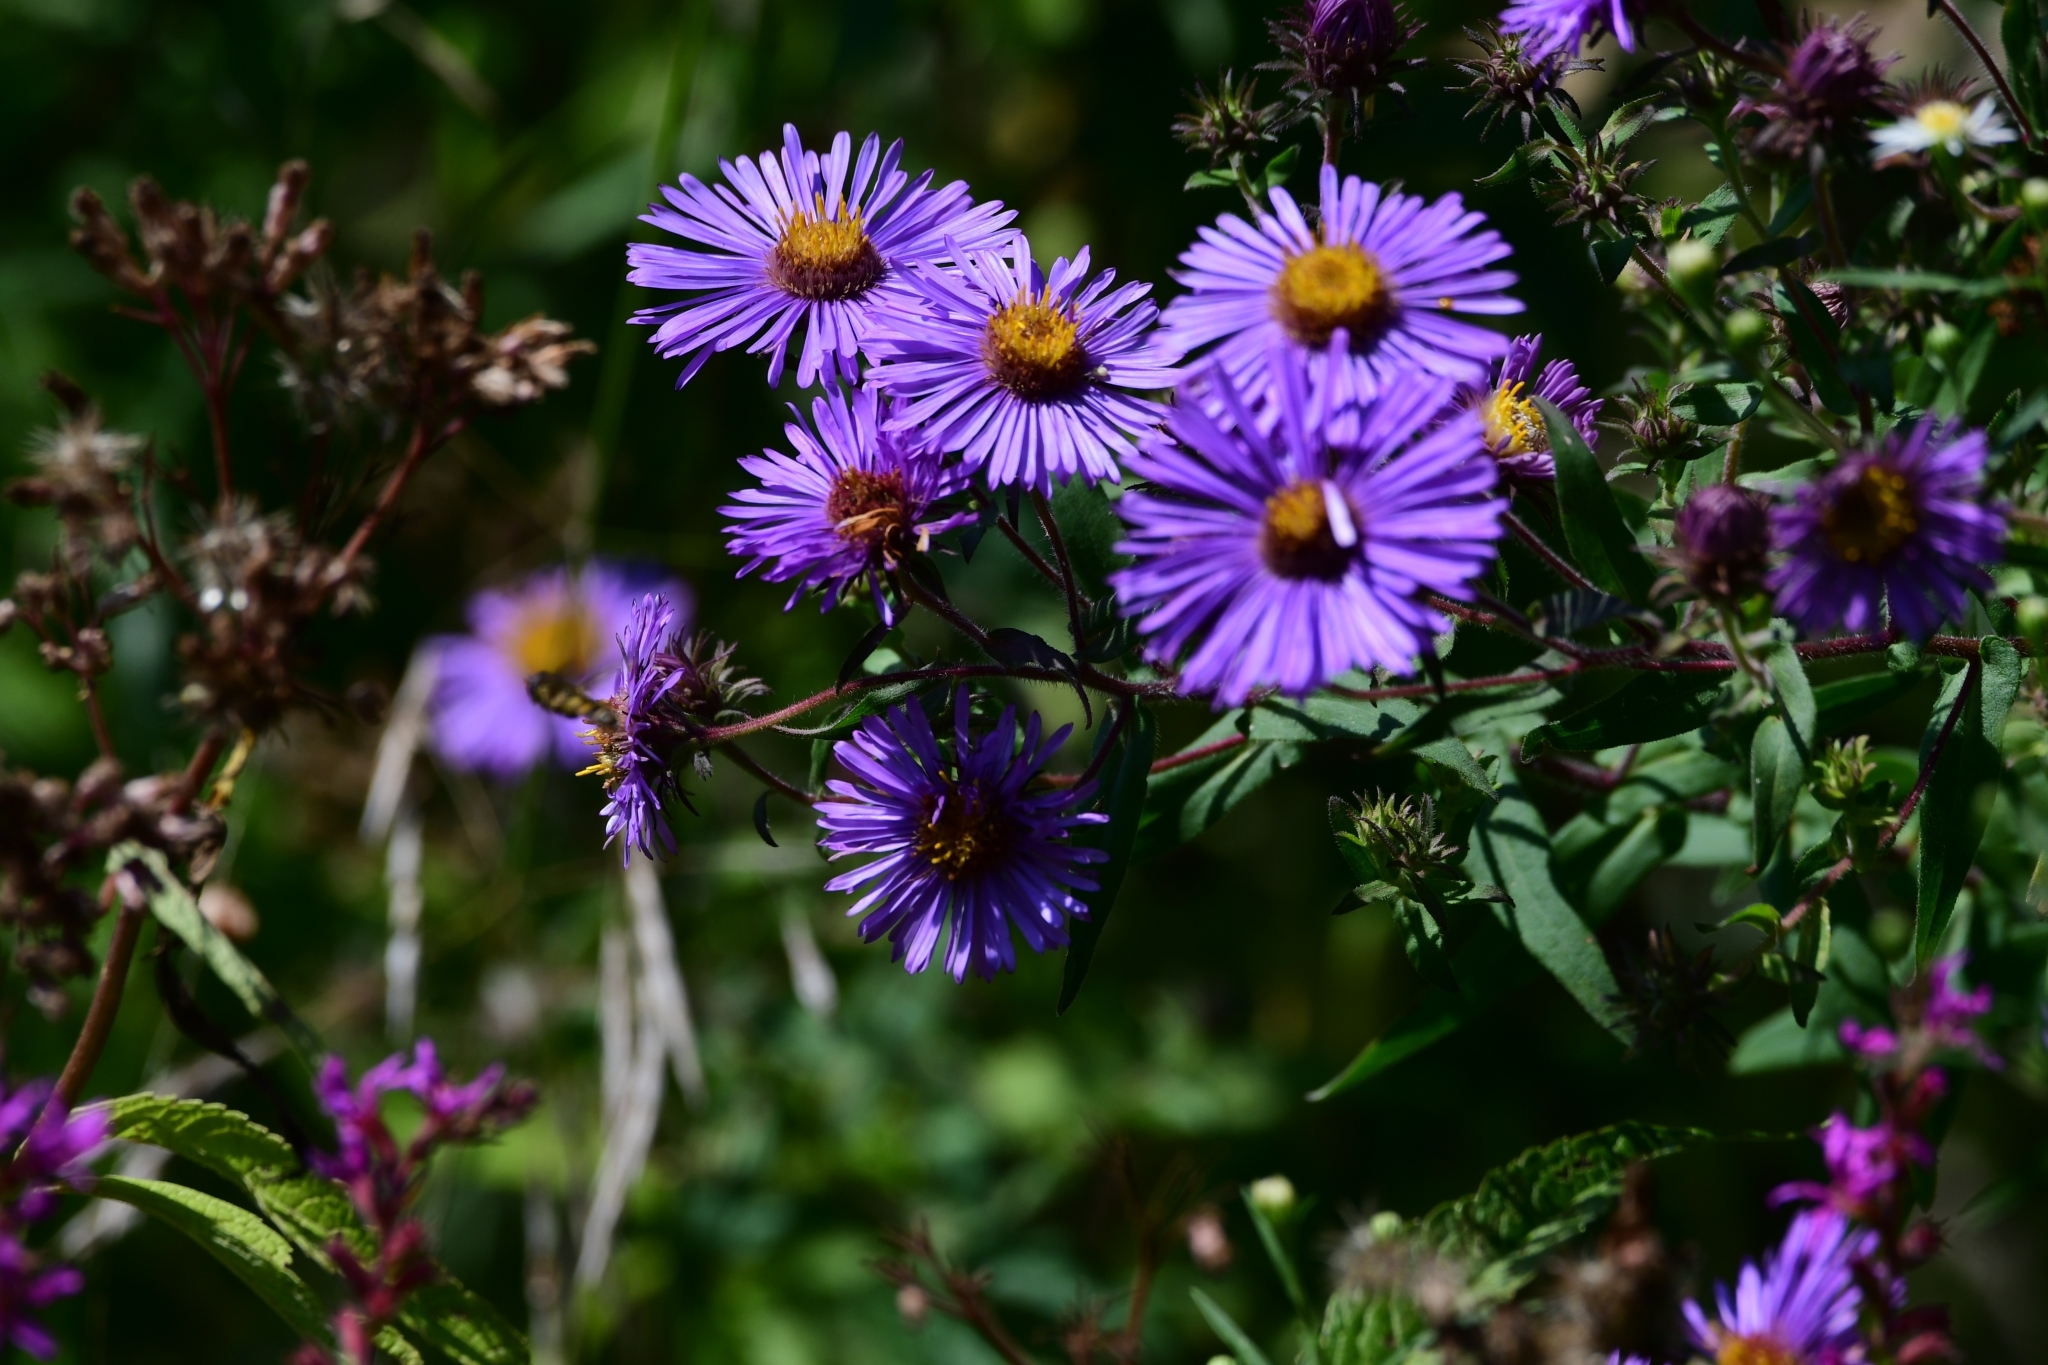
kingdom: Plantae
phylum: Tracheophyta
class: Magnoliopsida
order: Asterales
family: Asteraceae
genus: Symphyotrichum
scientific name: Symphyotrichum novae-angliae
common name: Michaelmas daisy
